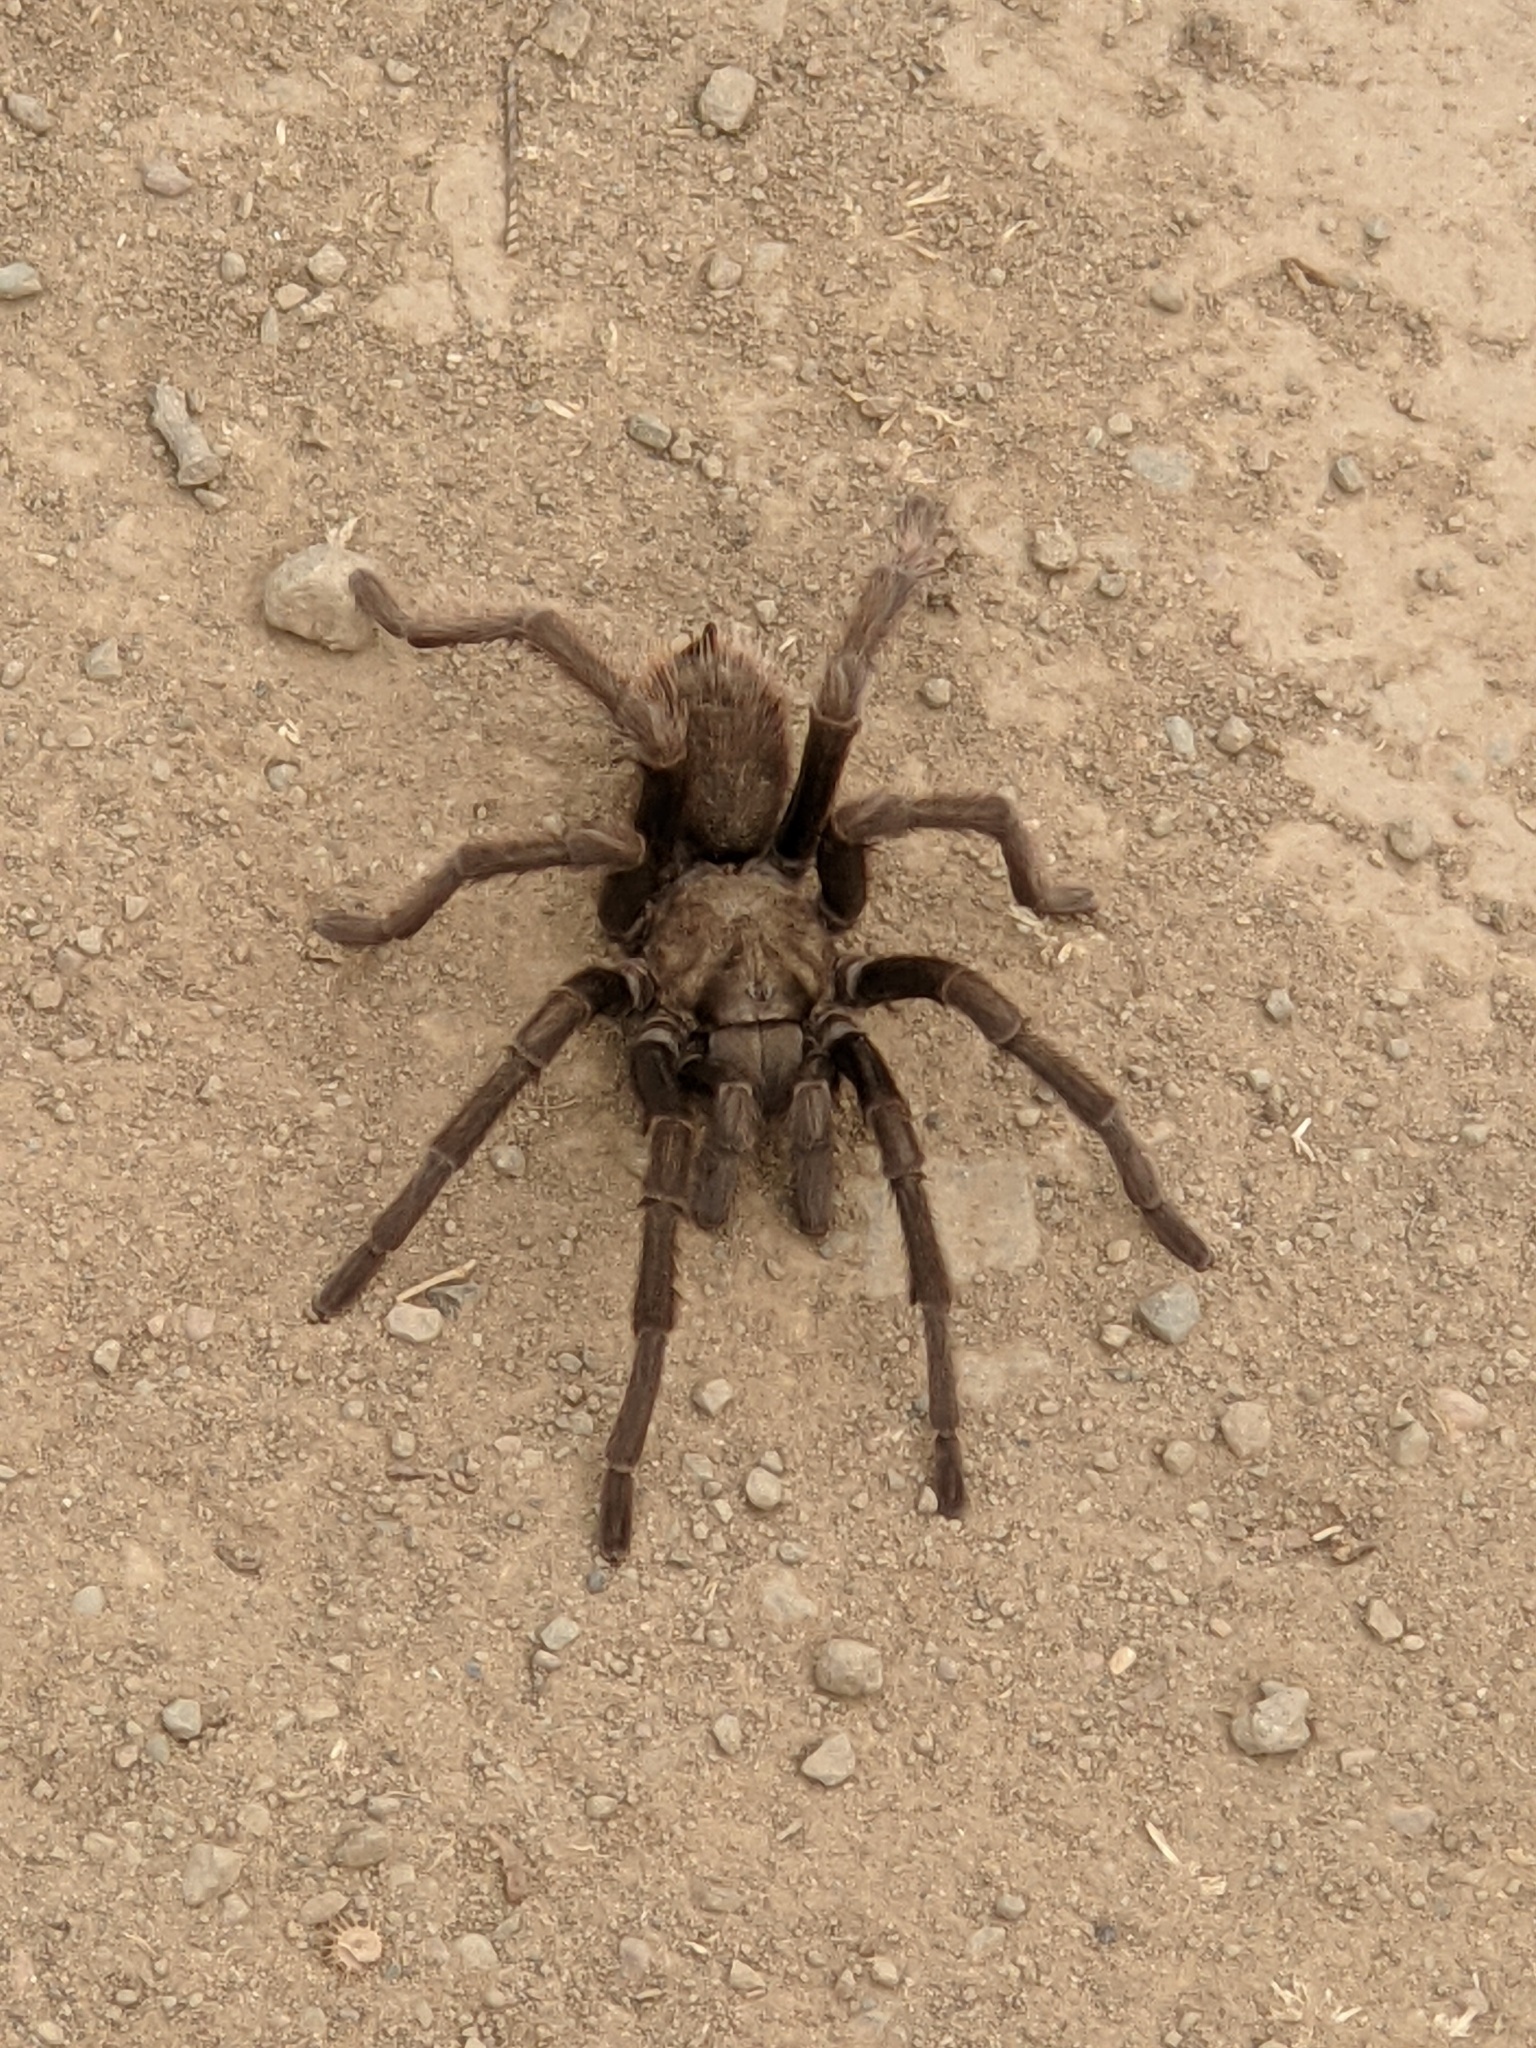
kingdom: Animalia
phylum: Arthropoda
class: Arachnida
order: Araneae
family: Theraphosidae
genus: Aphonopelma
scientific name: Aphonopelma iodius
